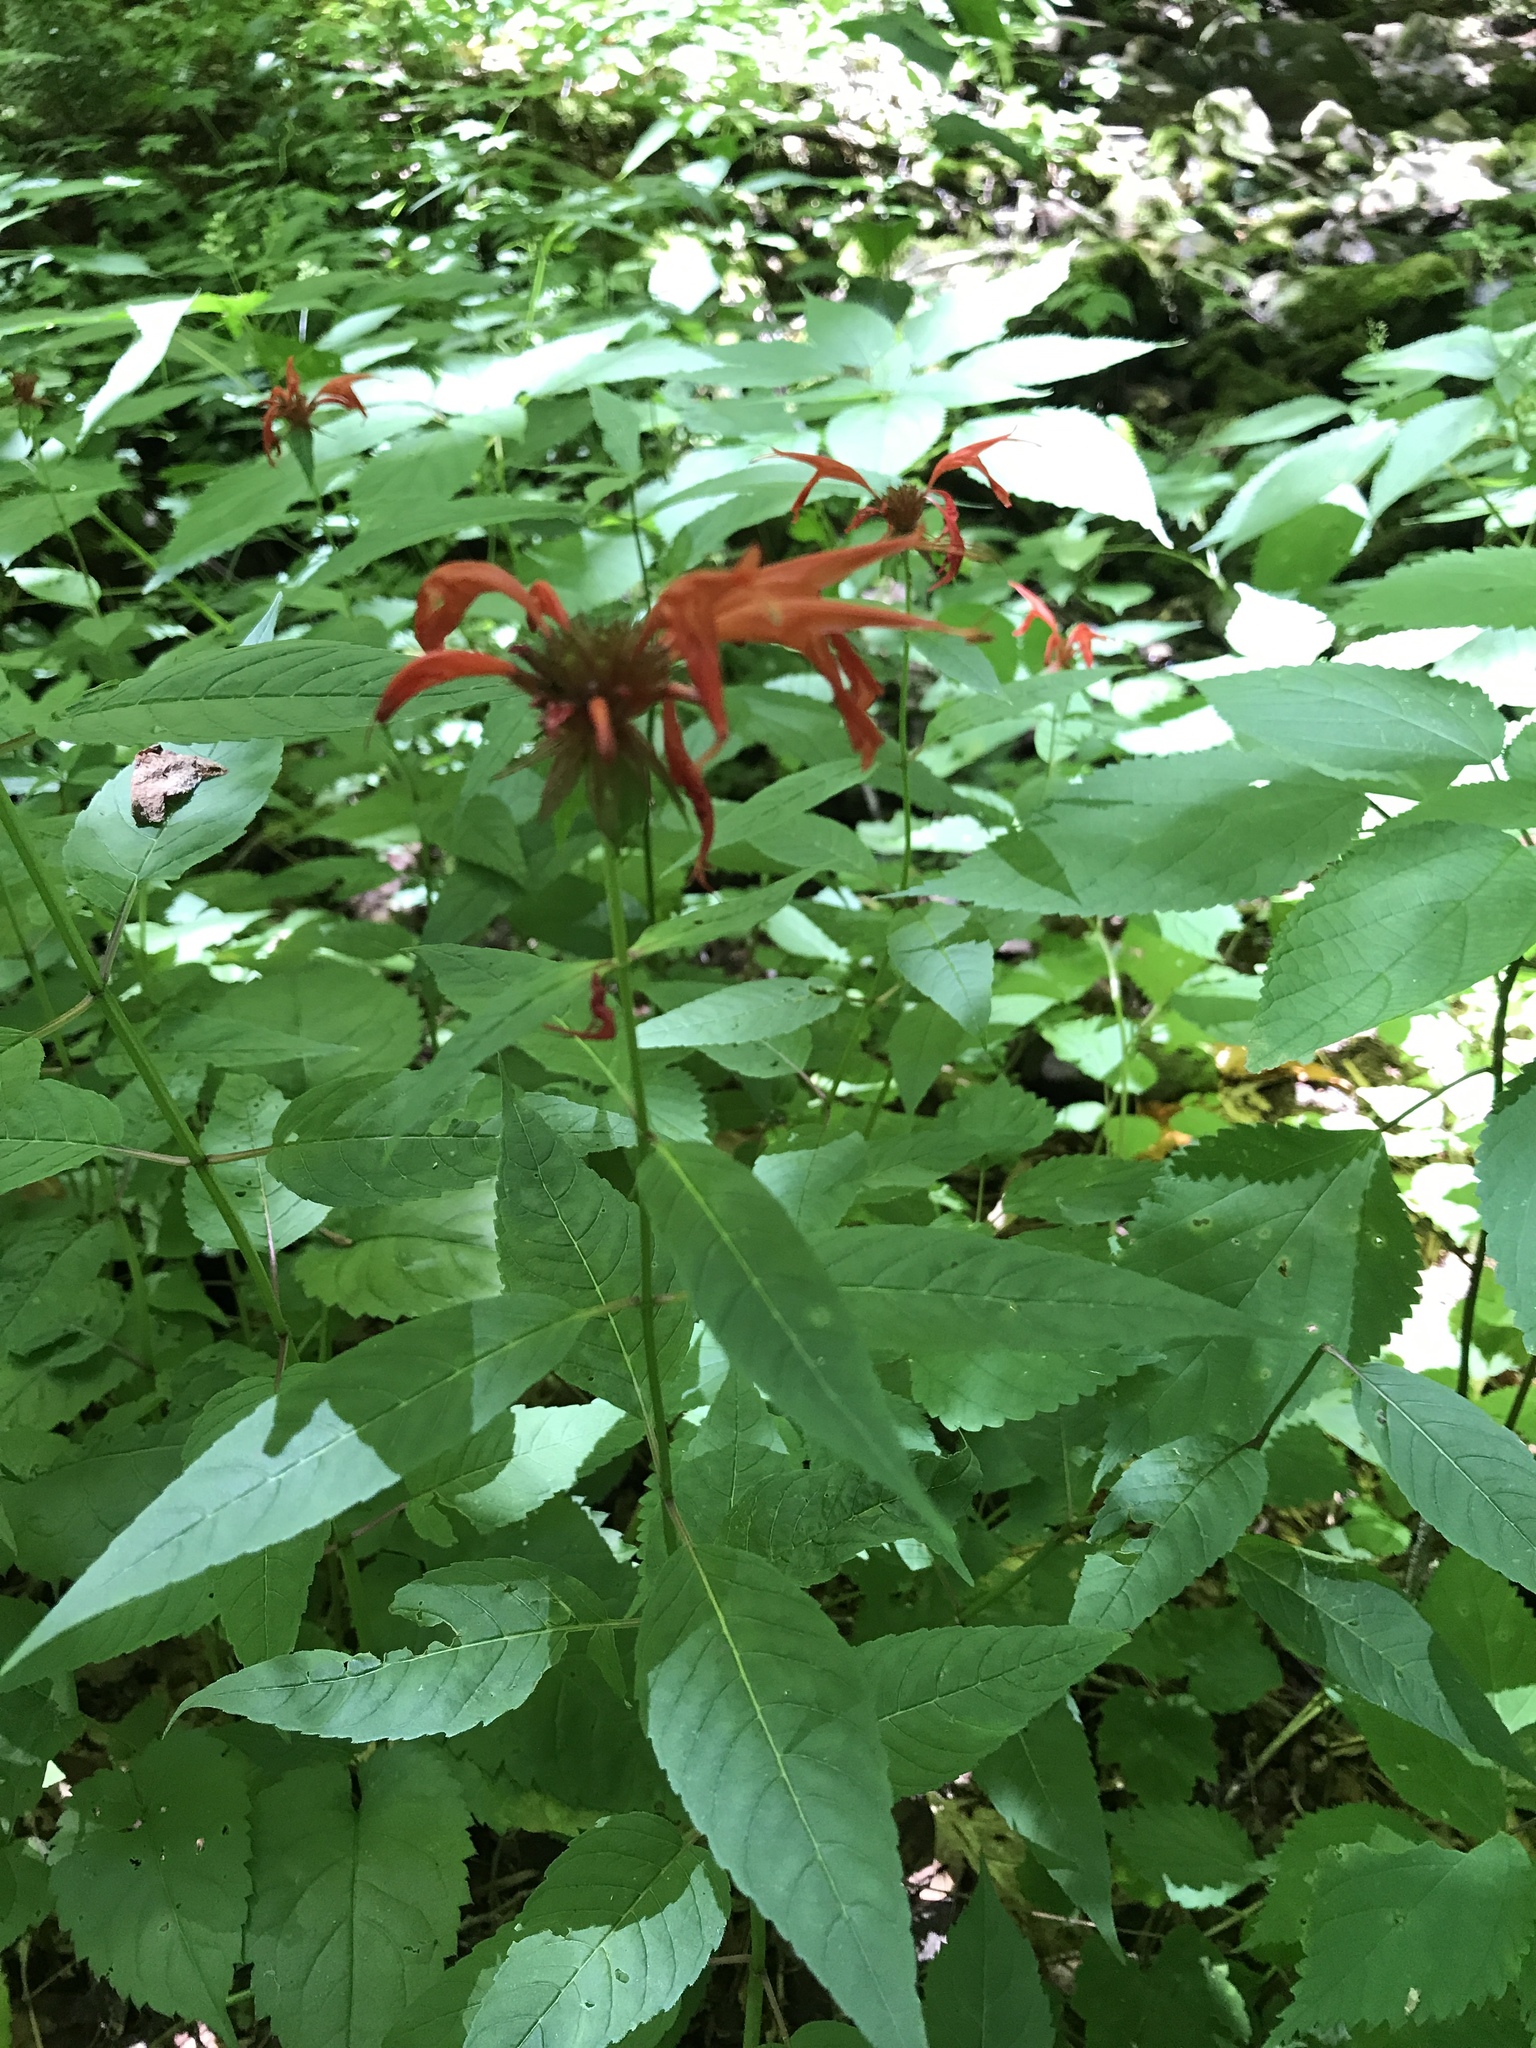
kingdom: Plantae
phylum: Tracheophyta
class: Magnoliopsida
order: Lamiales
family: Lamiaceae
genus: Monarda
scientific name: Monarda didyma
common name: Beebalm
